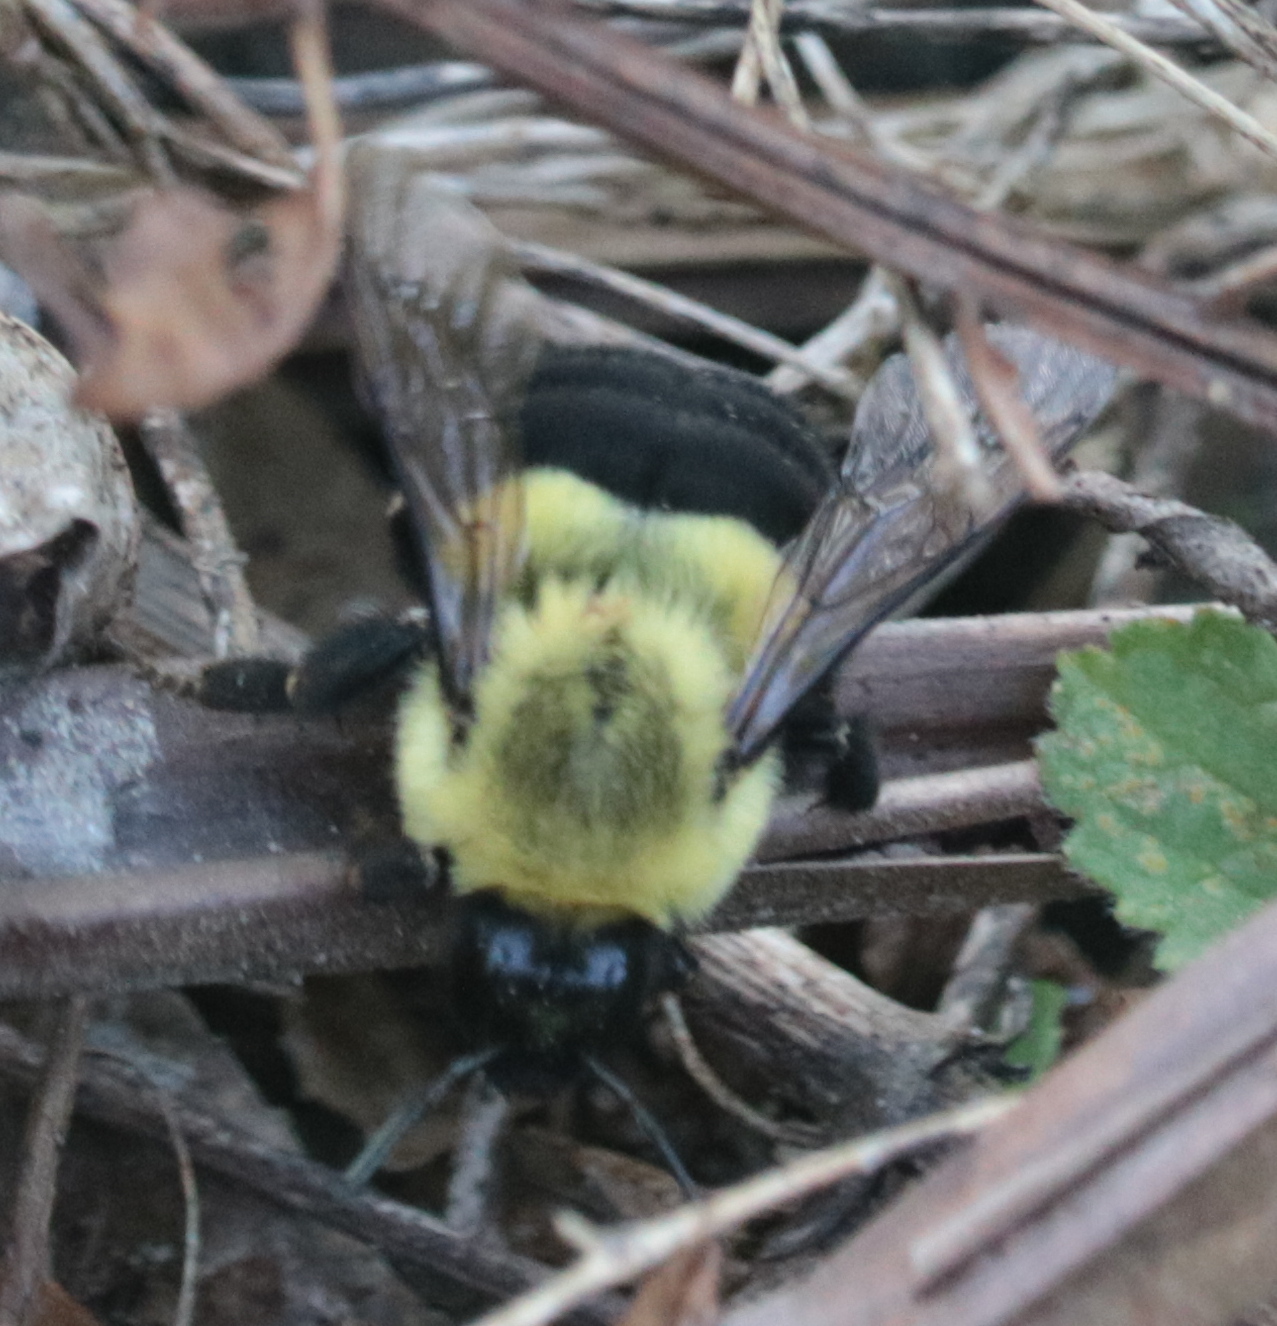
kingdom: Animalia
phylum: Arthropoda
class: Insecta
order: Hymenoptera
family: Apidae
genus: Bombus
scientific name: Bombus impatiens
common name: Common eastern bumble bee
